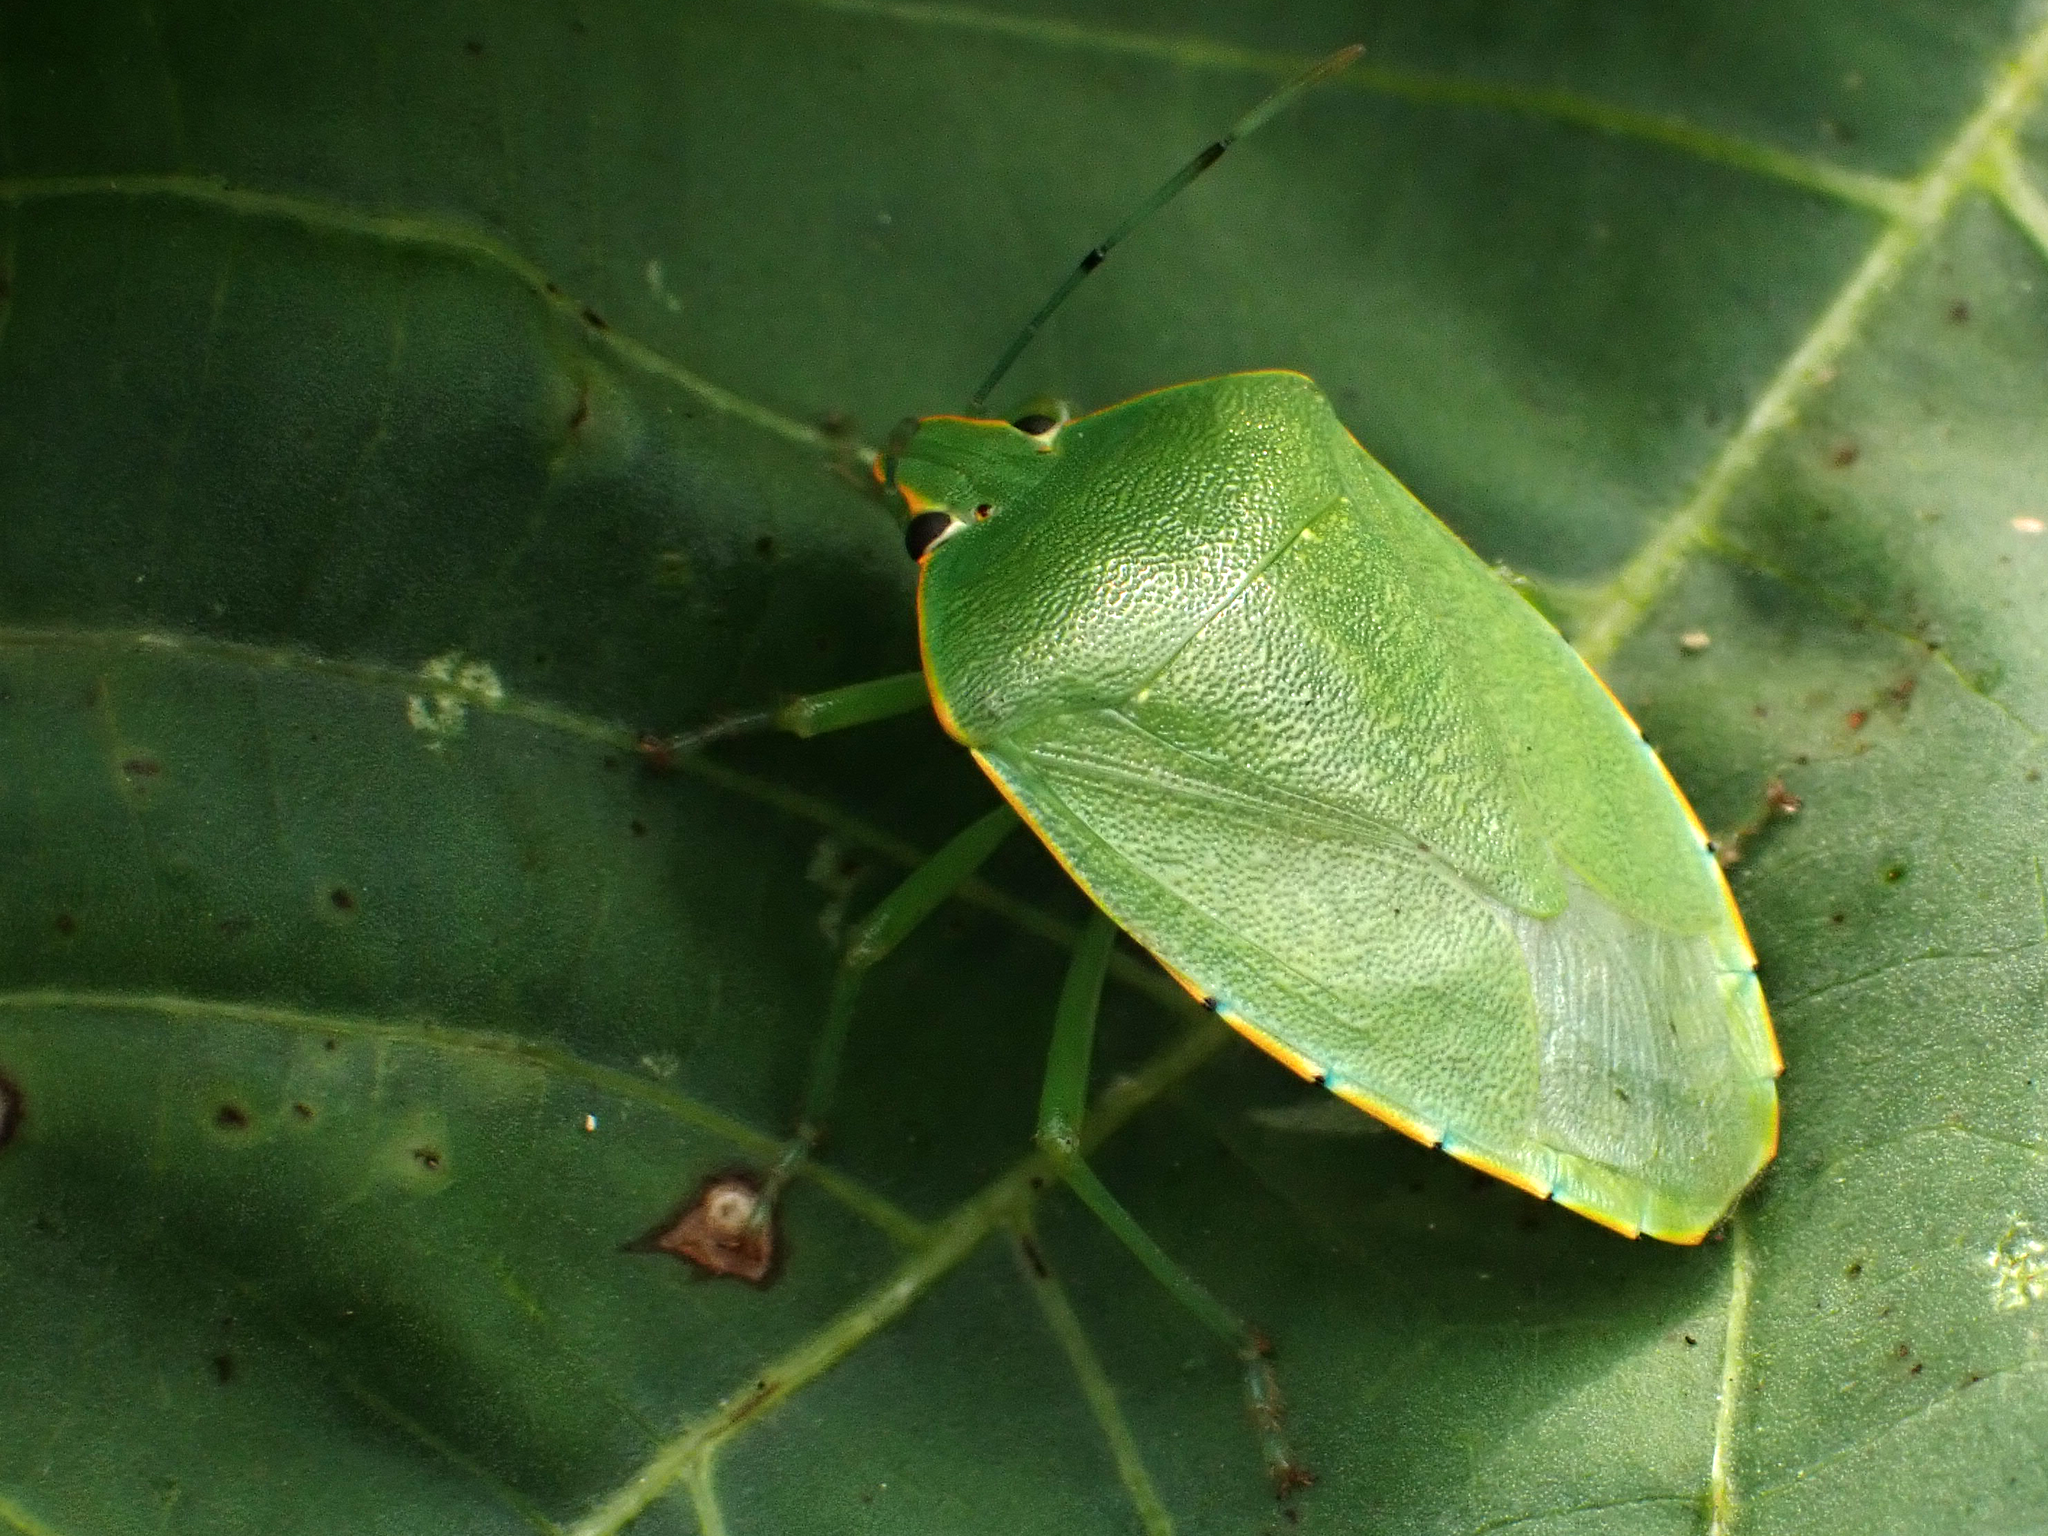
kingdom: Animalia
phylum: Arthropoda
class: Insecta
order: Hemiptera
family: Pentatomidae
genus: Acrosternum
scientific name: Acrosternum marginatum
